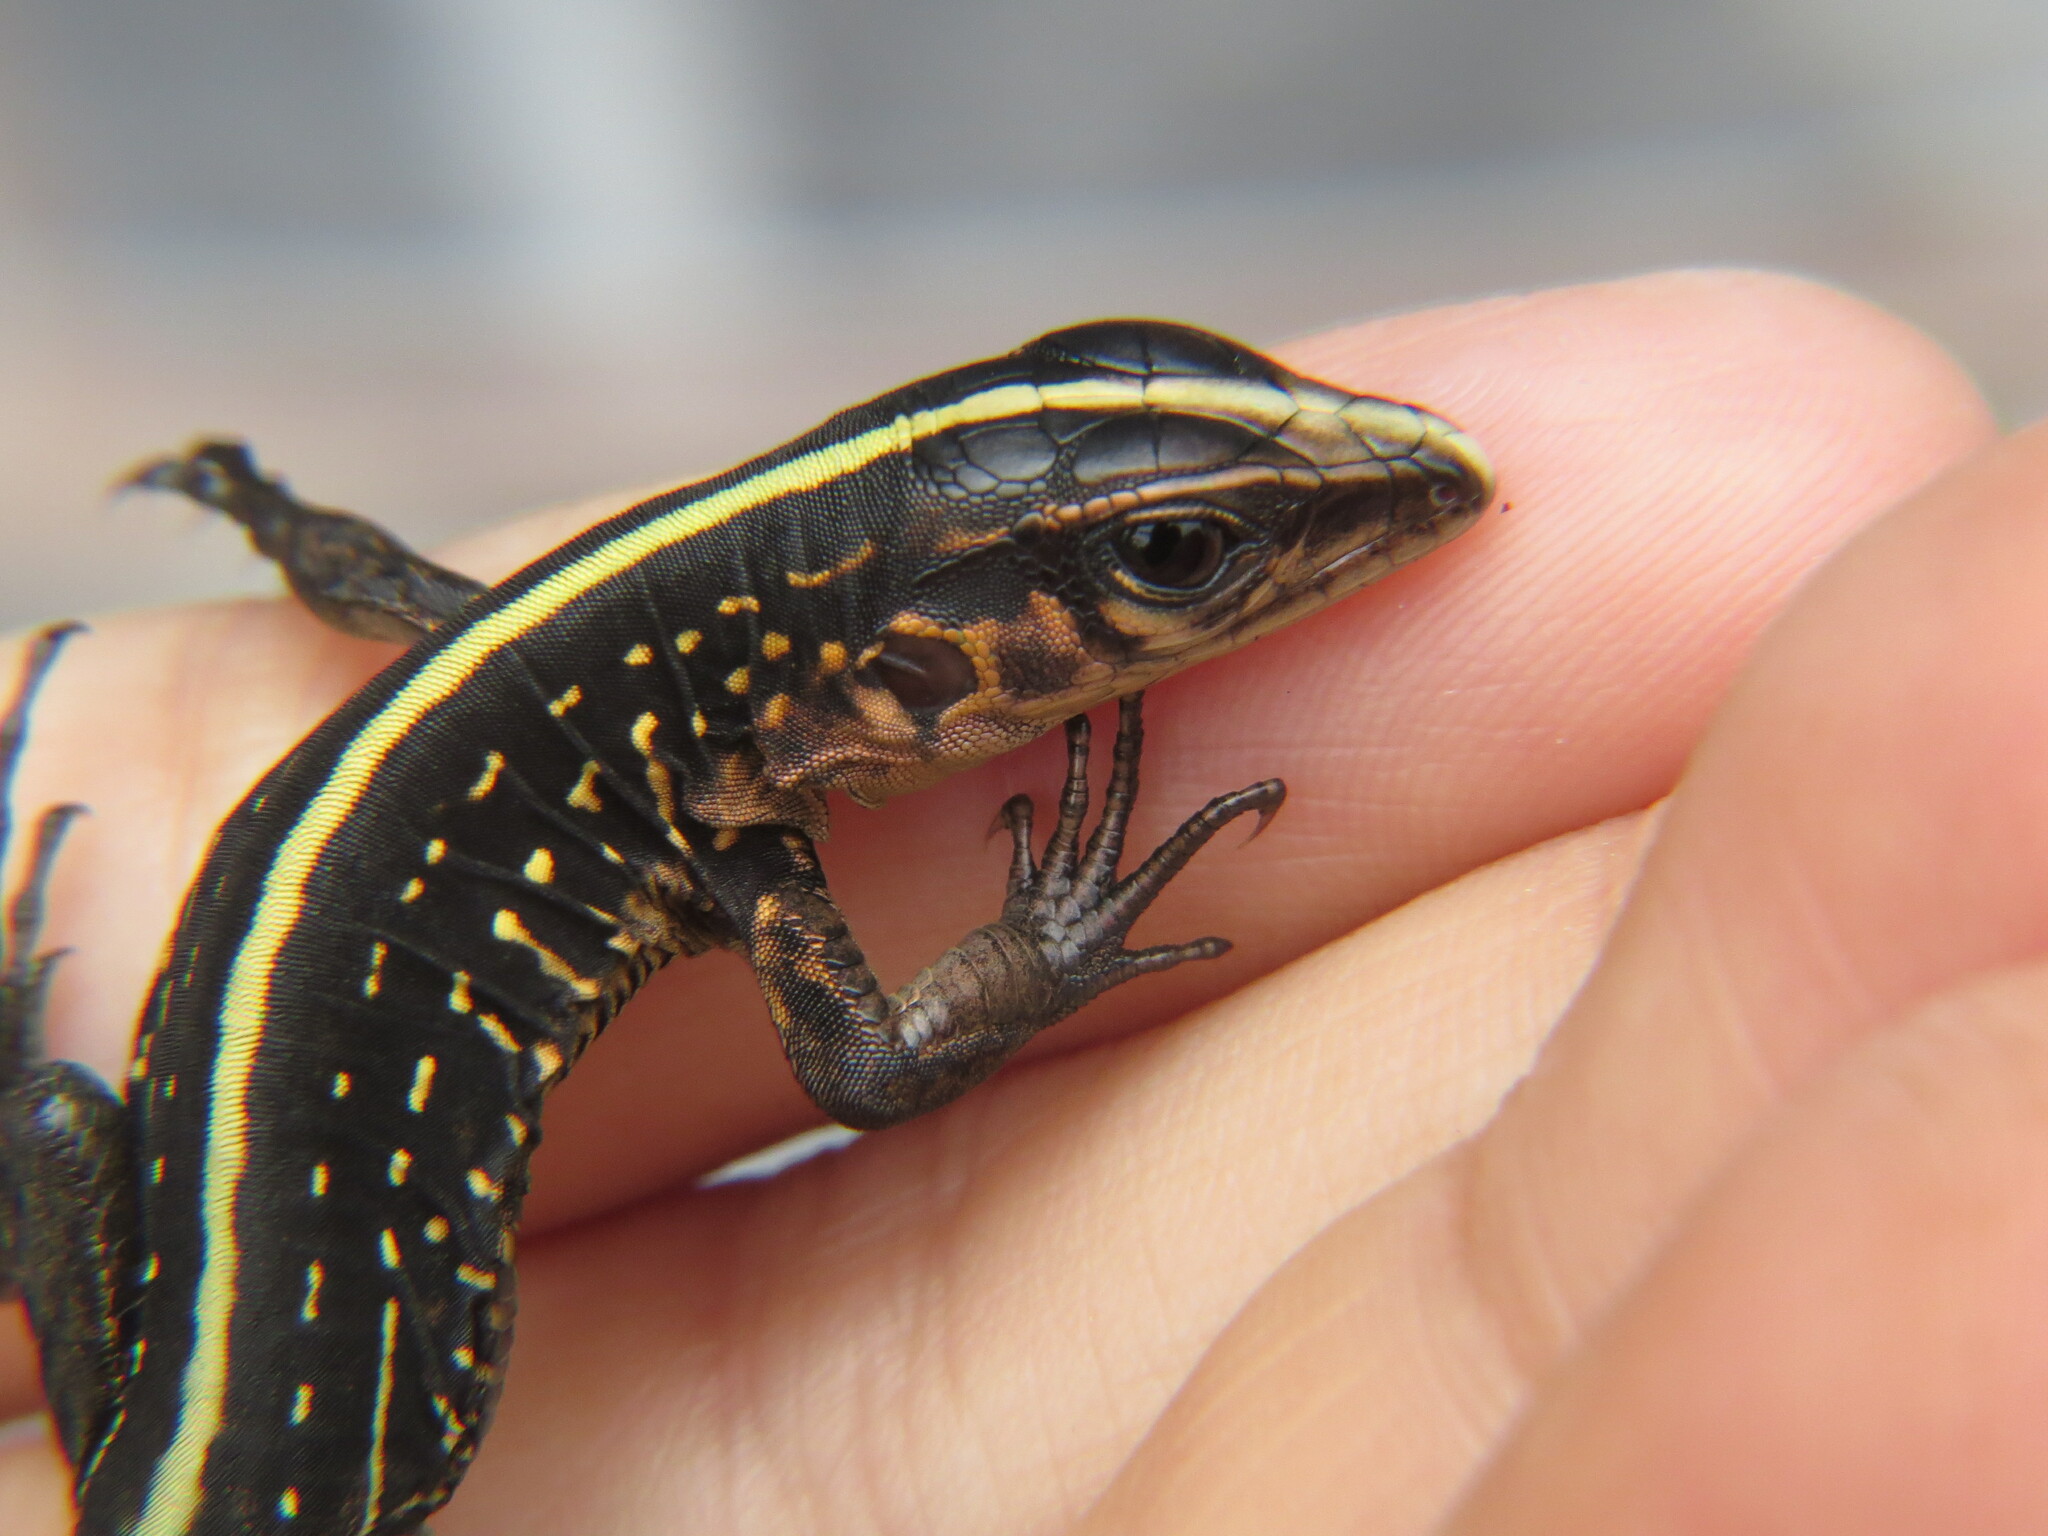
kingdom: Animalia
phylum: Chordata
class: Squamata
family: Teiidae
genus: Holcosus
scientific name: Holcosus festivus
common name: Middle american ameiva
